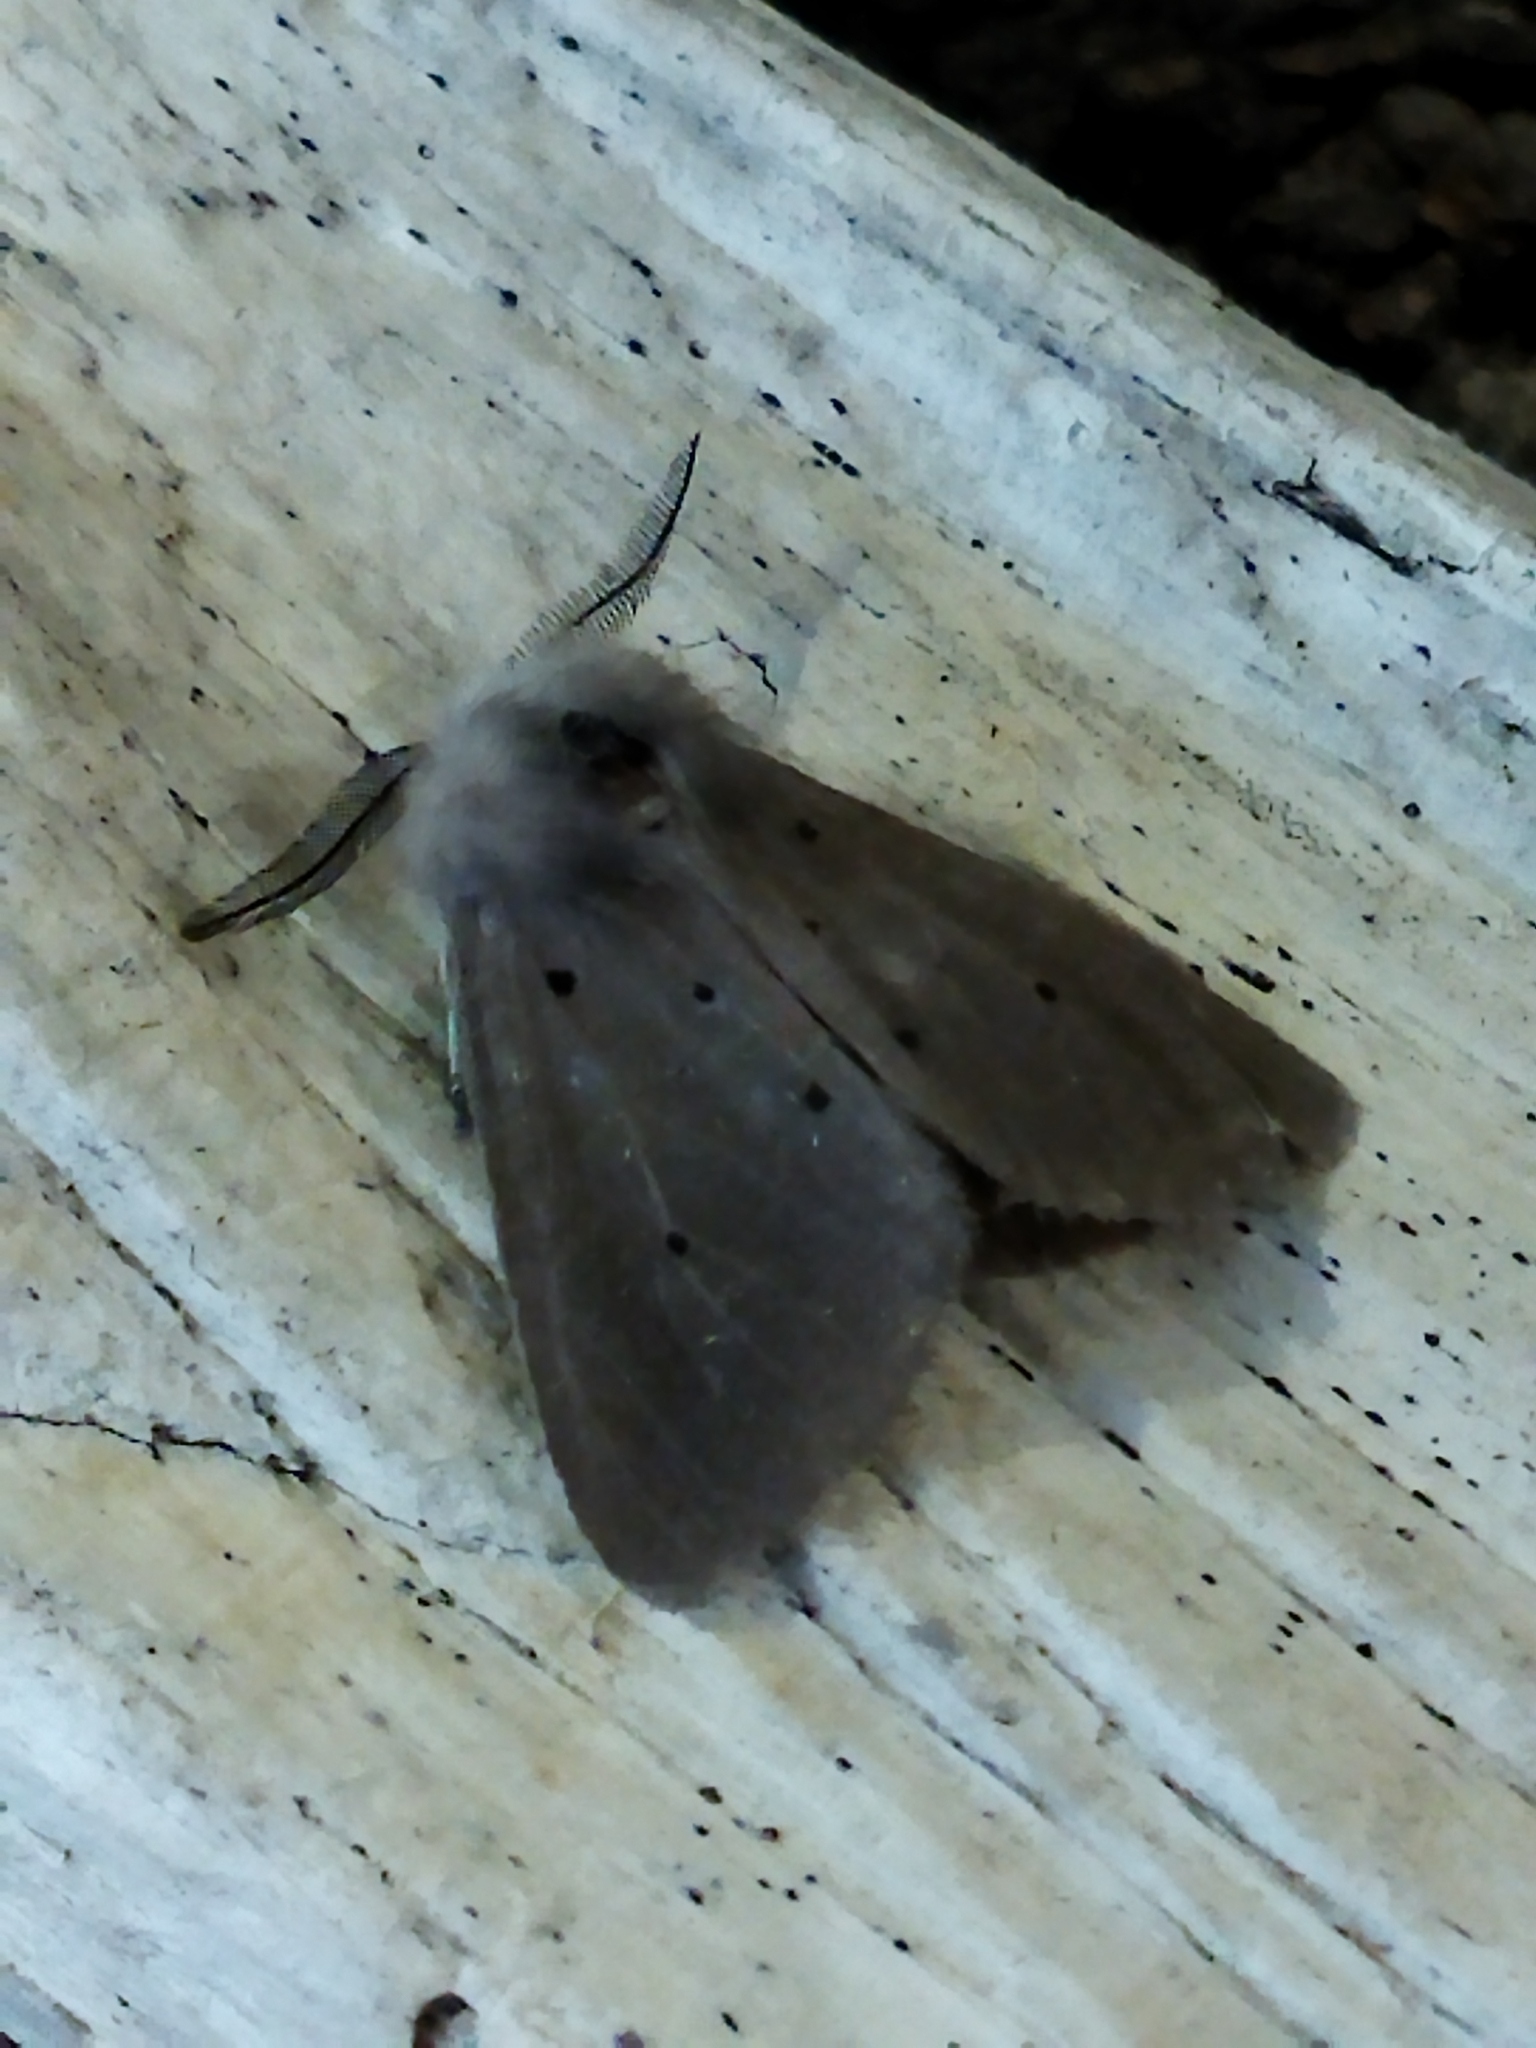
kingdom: Animalia
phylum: Arthropoda
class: Insecta
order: Lepidoptera
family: Erebidae
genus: Diaphora
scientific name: Diaphora mendica
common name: Muslin moth
